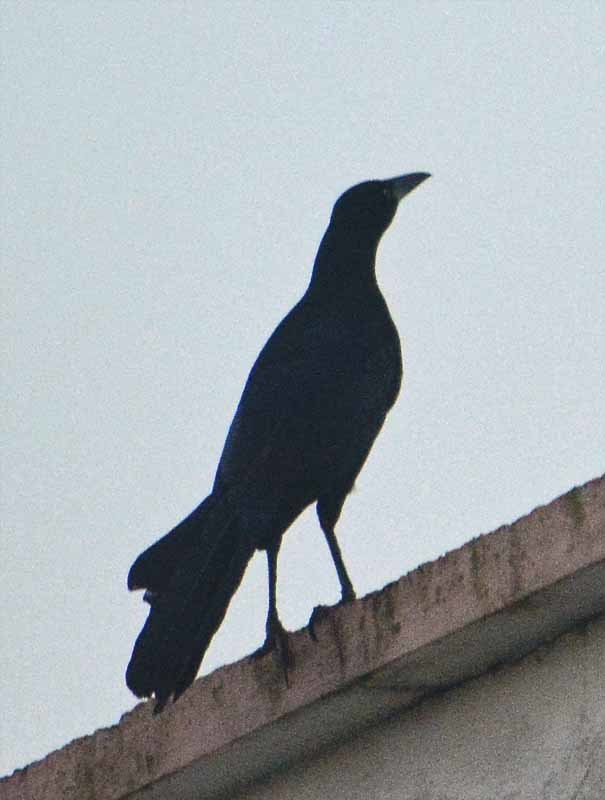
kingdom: Animalia
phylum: Chordata
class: Aves
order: Passeriformes
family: Icteridae
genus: Quiscalus
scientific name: Quiscalus mexicanus
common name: Great-tailed grackle
